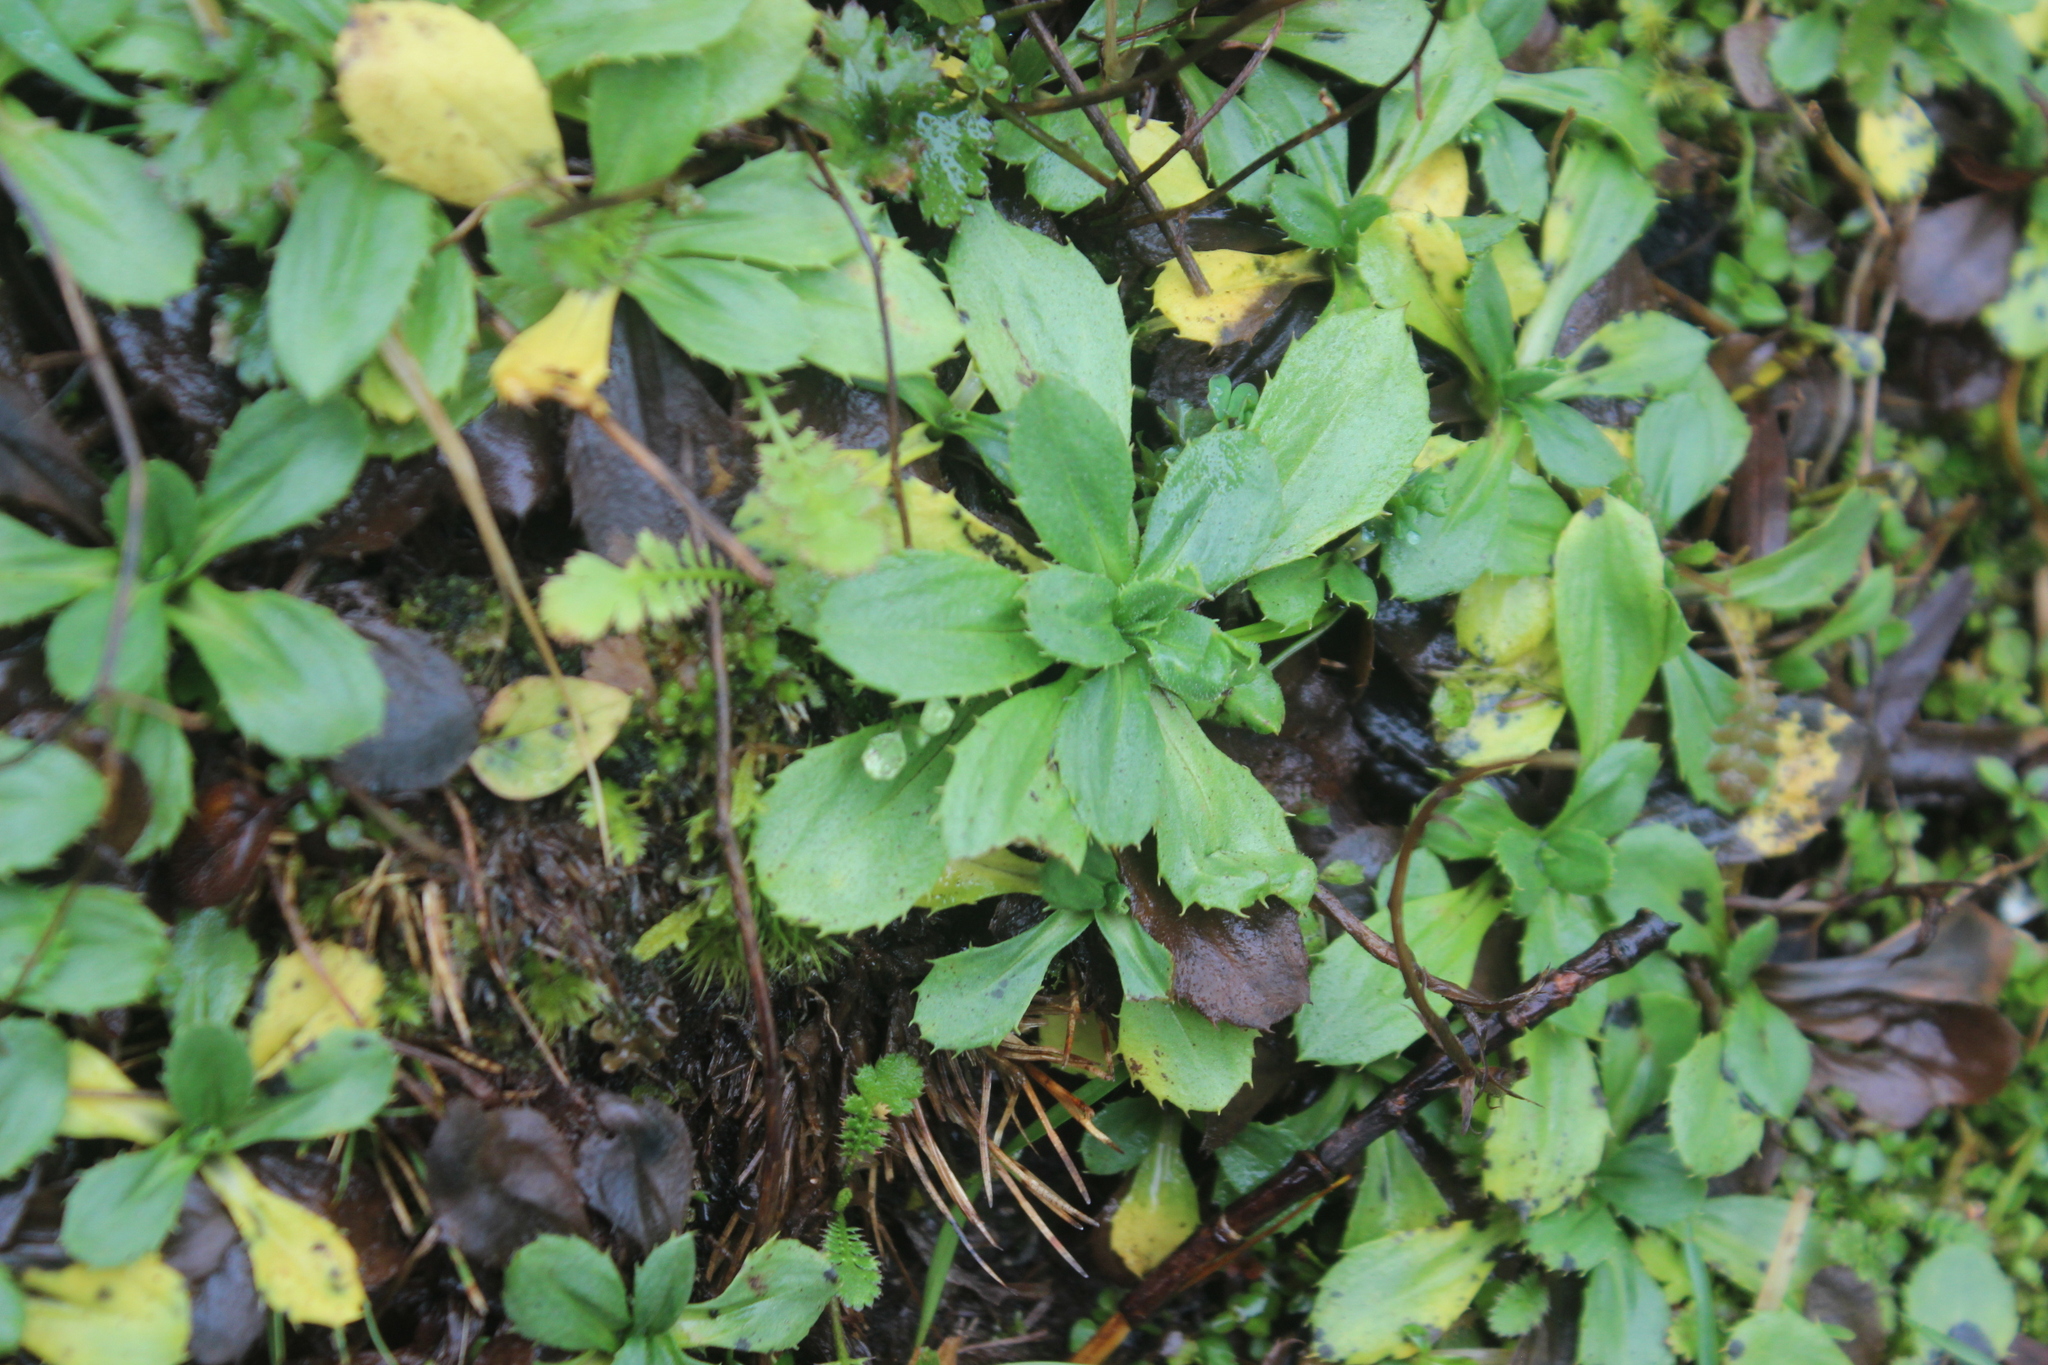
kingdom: Plantae
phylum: Tracheophyta
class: Magnoliopsida
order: Asterales
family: Asteraceae
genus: Celmisia
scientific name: Celmisia glandulosa
